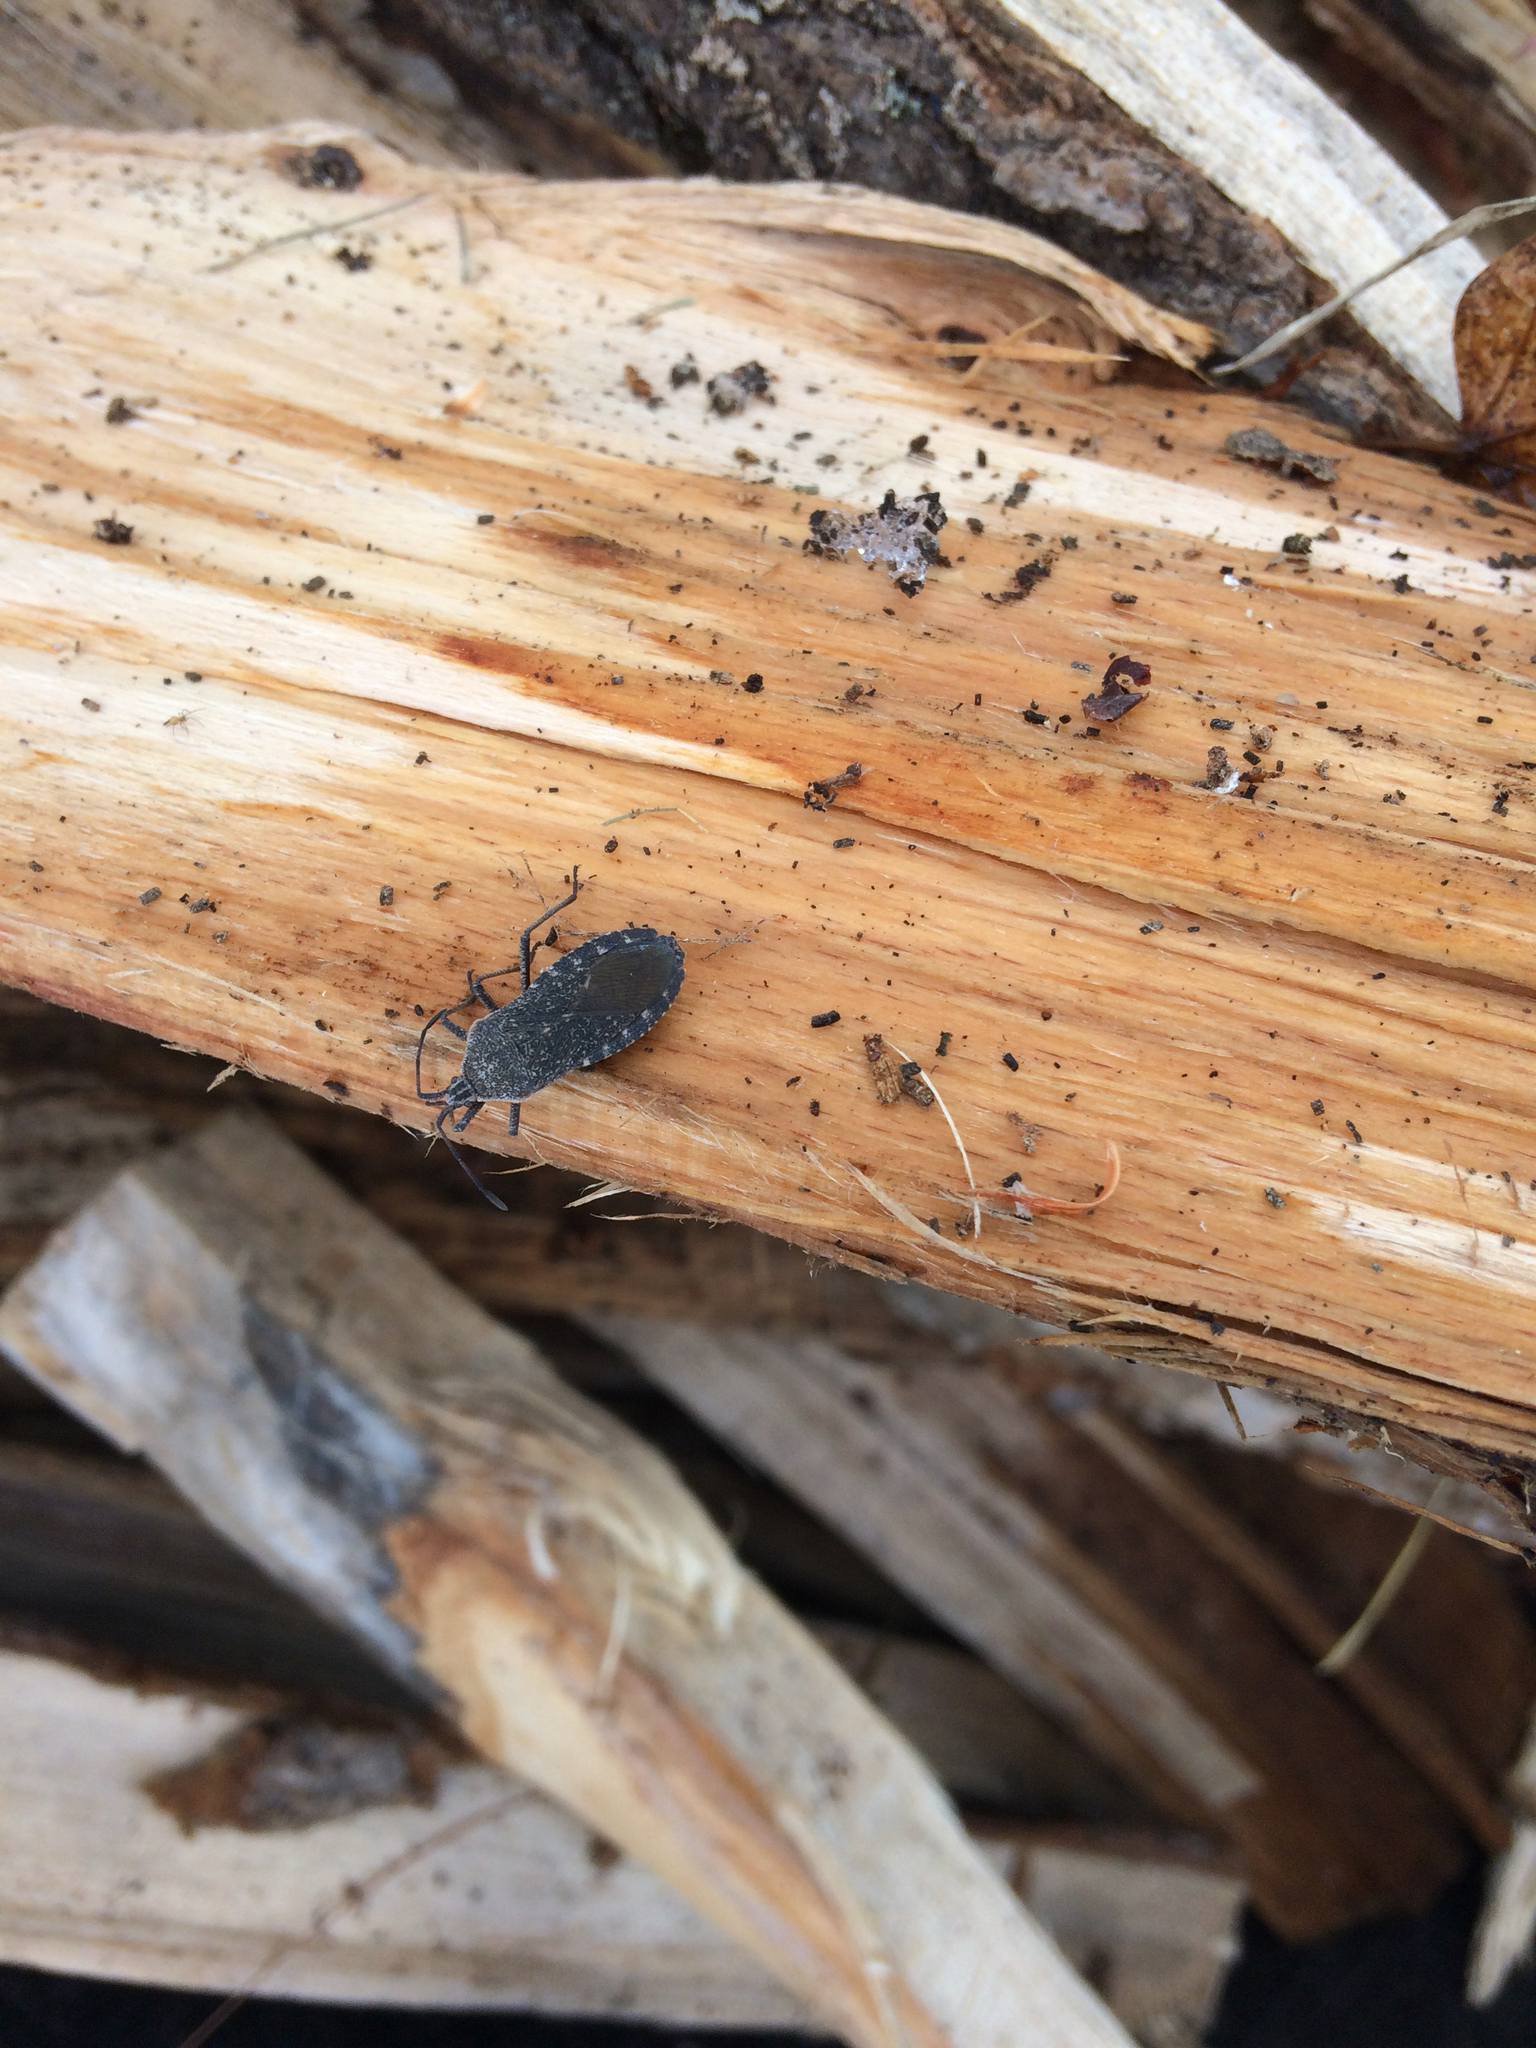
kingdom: Animalia
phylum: Arthropoda
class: Insecta
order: Hemiptera
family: Coreidae
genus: Anasa
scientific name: Anasa tristis
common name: Squash bug
